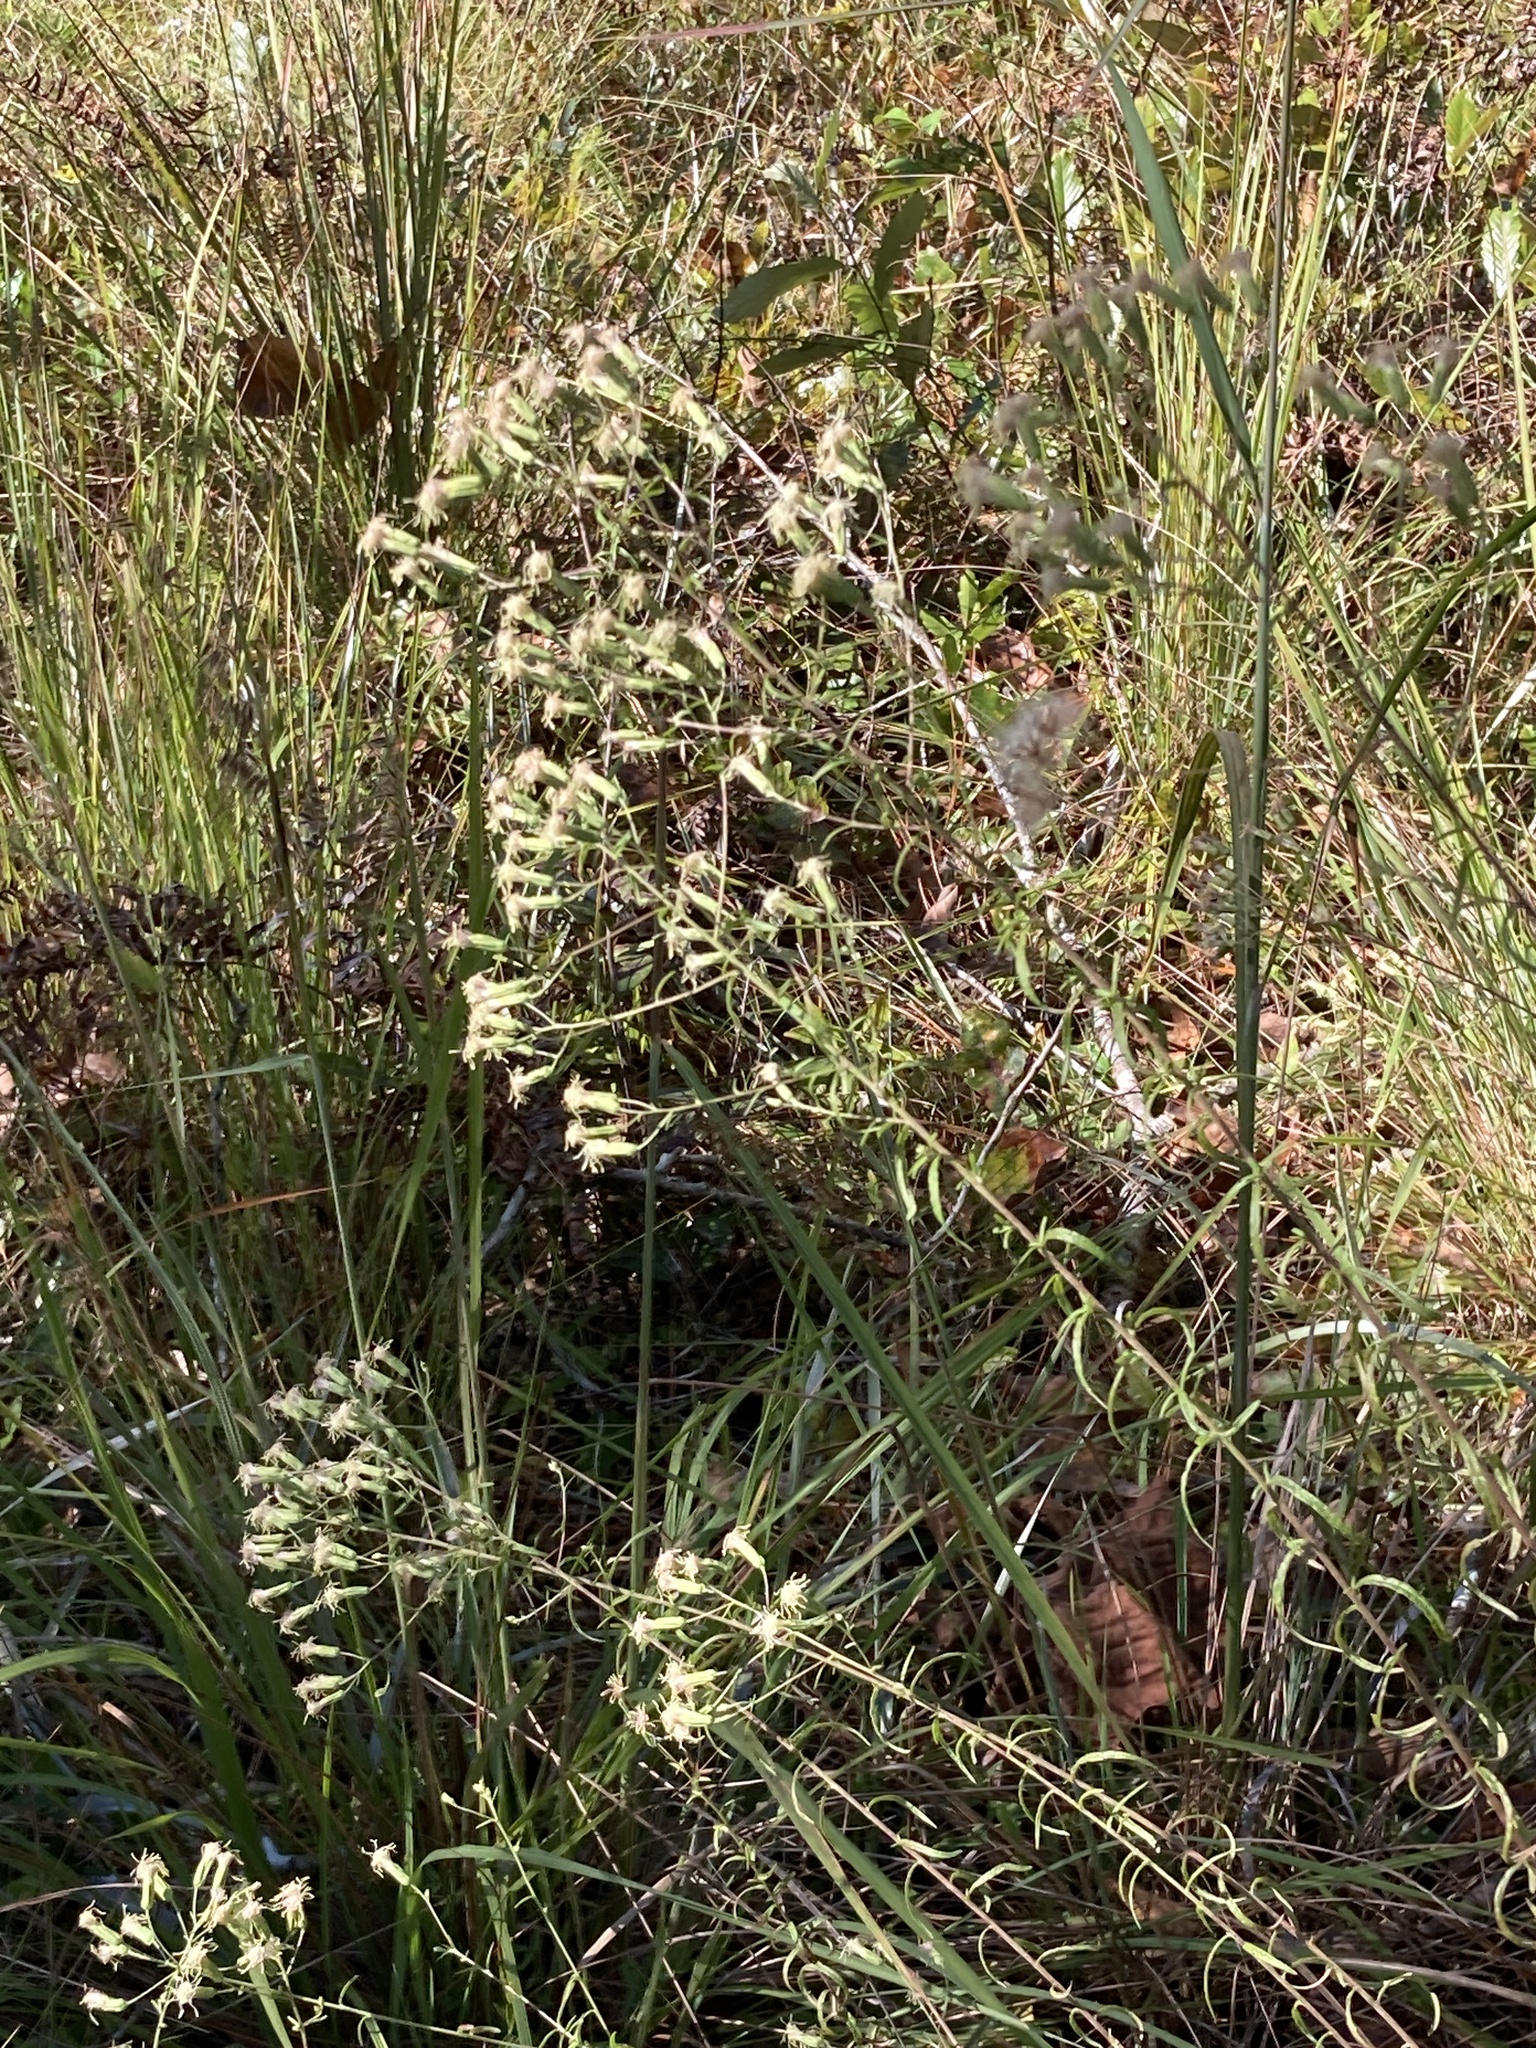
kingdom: Plantae
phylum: Tracheophyta
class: Magnoliopsida
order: Asterales
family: Asteraceae
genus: Brickellia
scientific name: Brickellia eupatorioides
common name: False boneset
